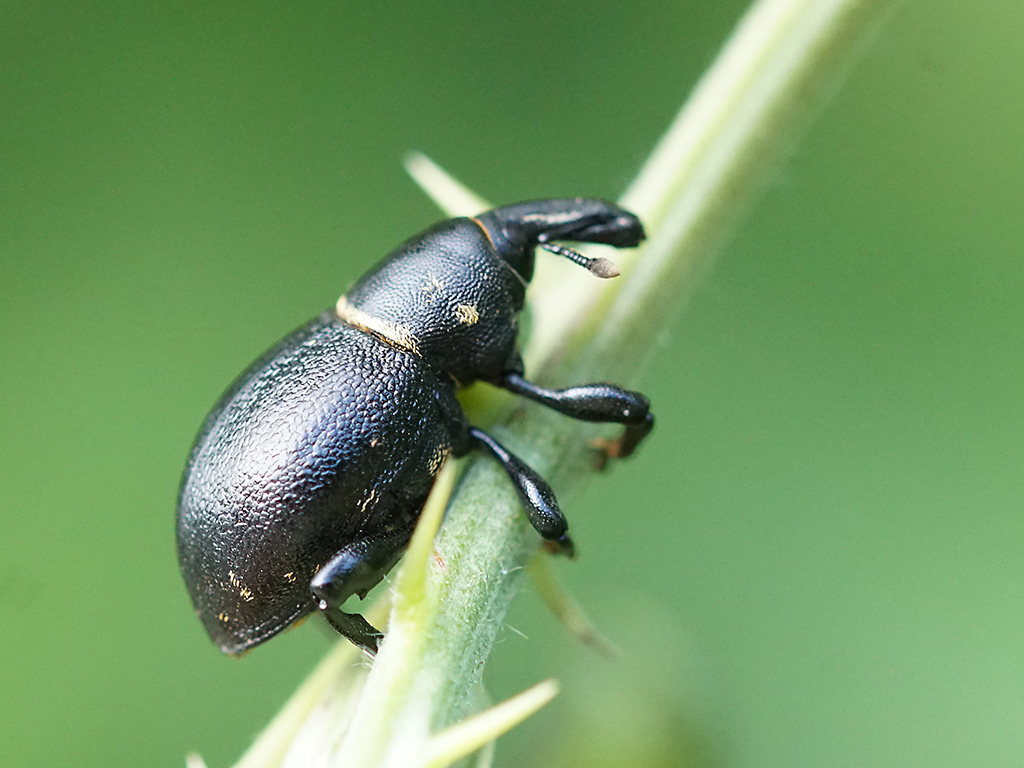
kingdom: Animalia
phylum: Arthropoda
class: Insecta
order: Coleoptera
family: Curculionidae
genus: Liparus
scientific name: Liparus coronatus
